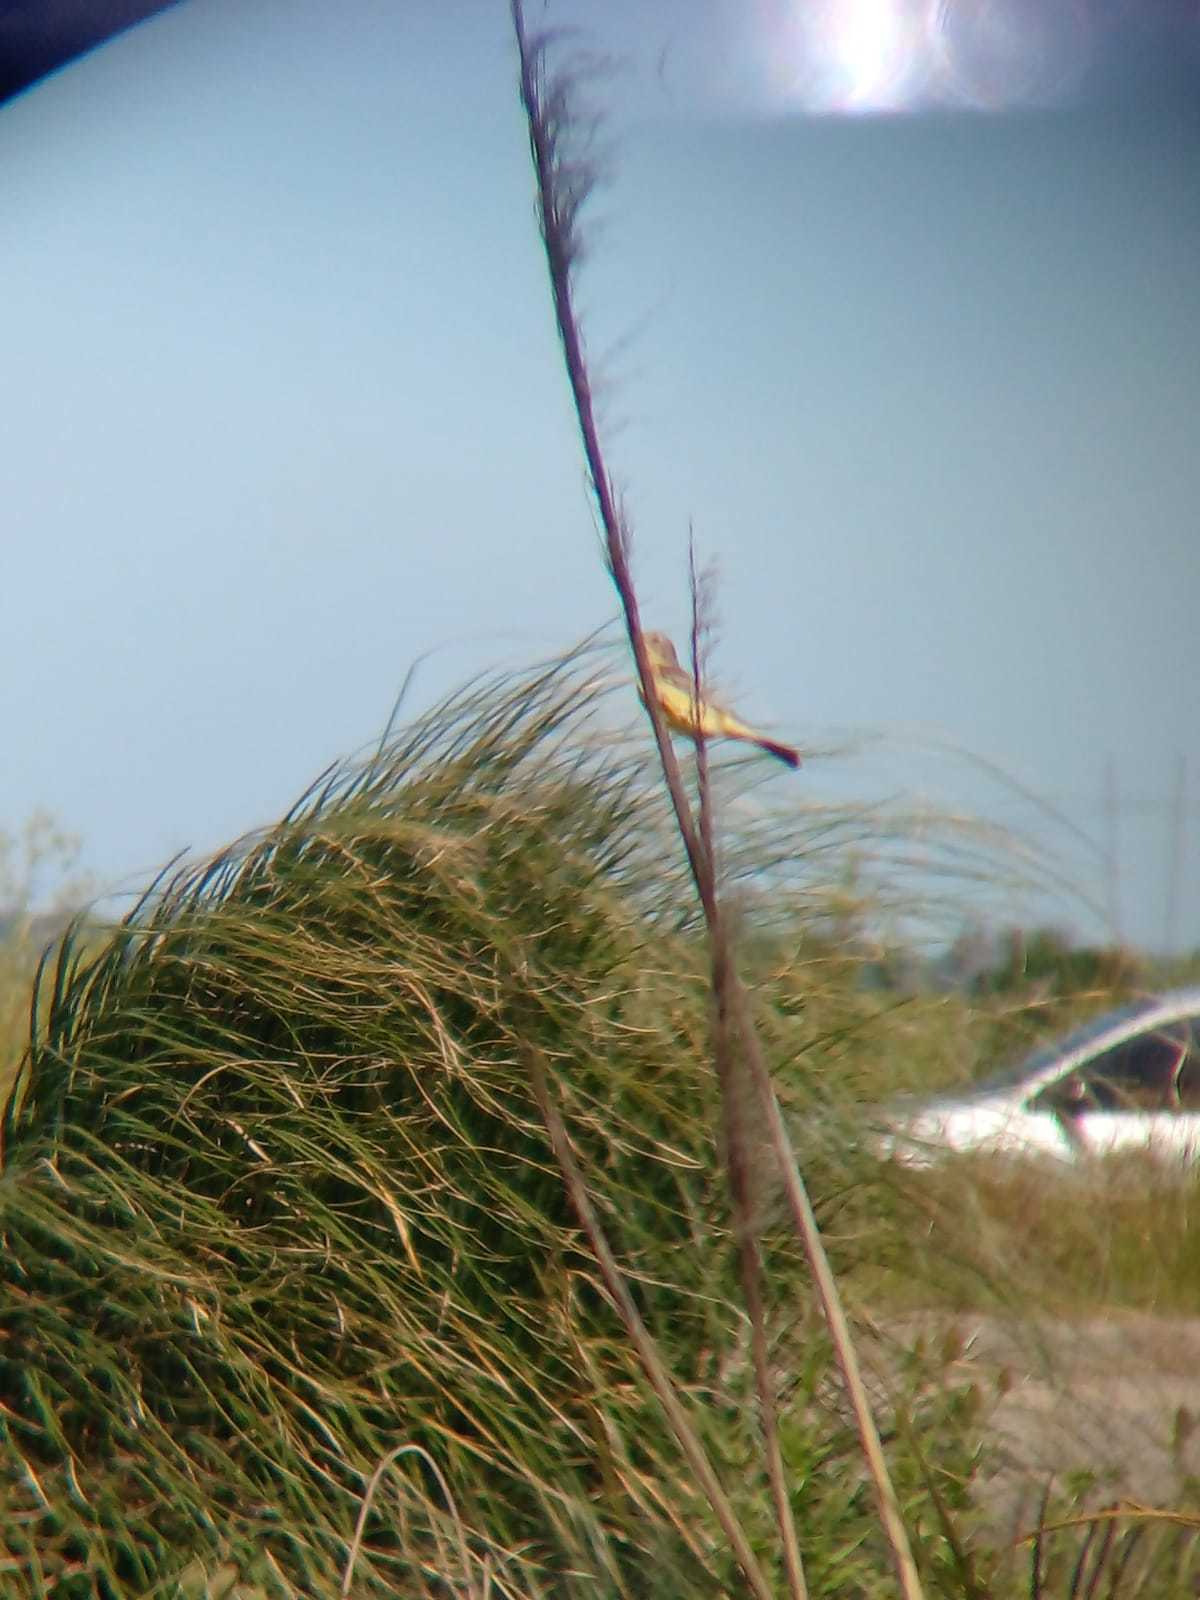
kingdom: Animalia
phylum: Chordata
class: Aves
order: Passeriformes
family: Thraupidae
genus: Sicalis
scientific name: Sicalis luteola
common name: Grassland yellow-finch
